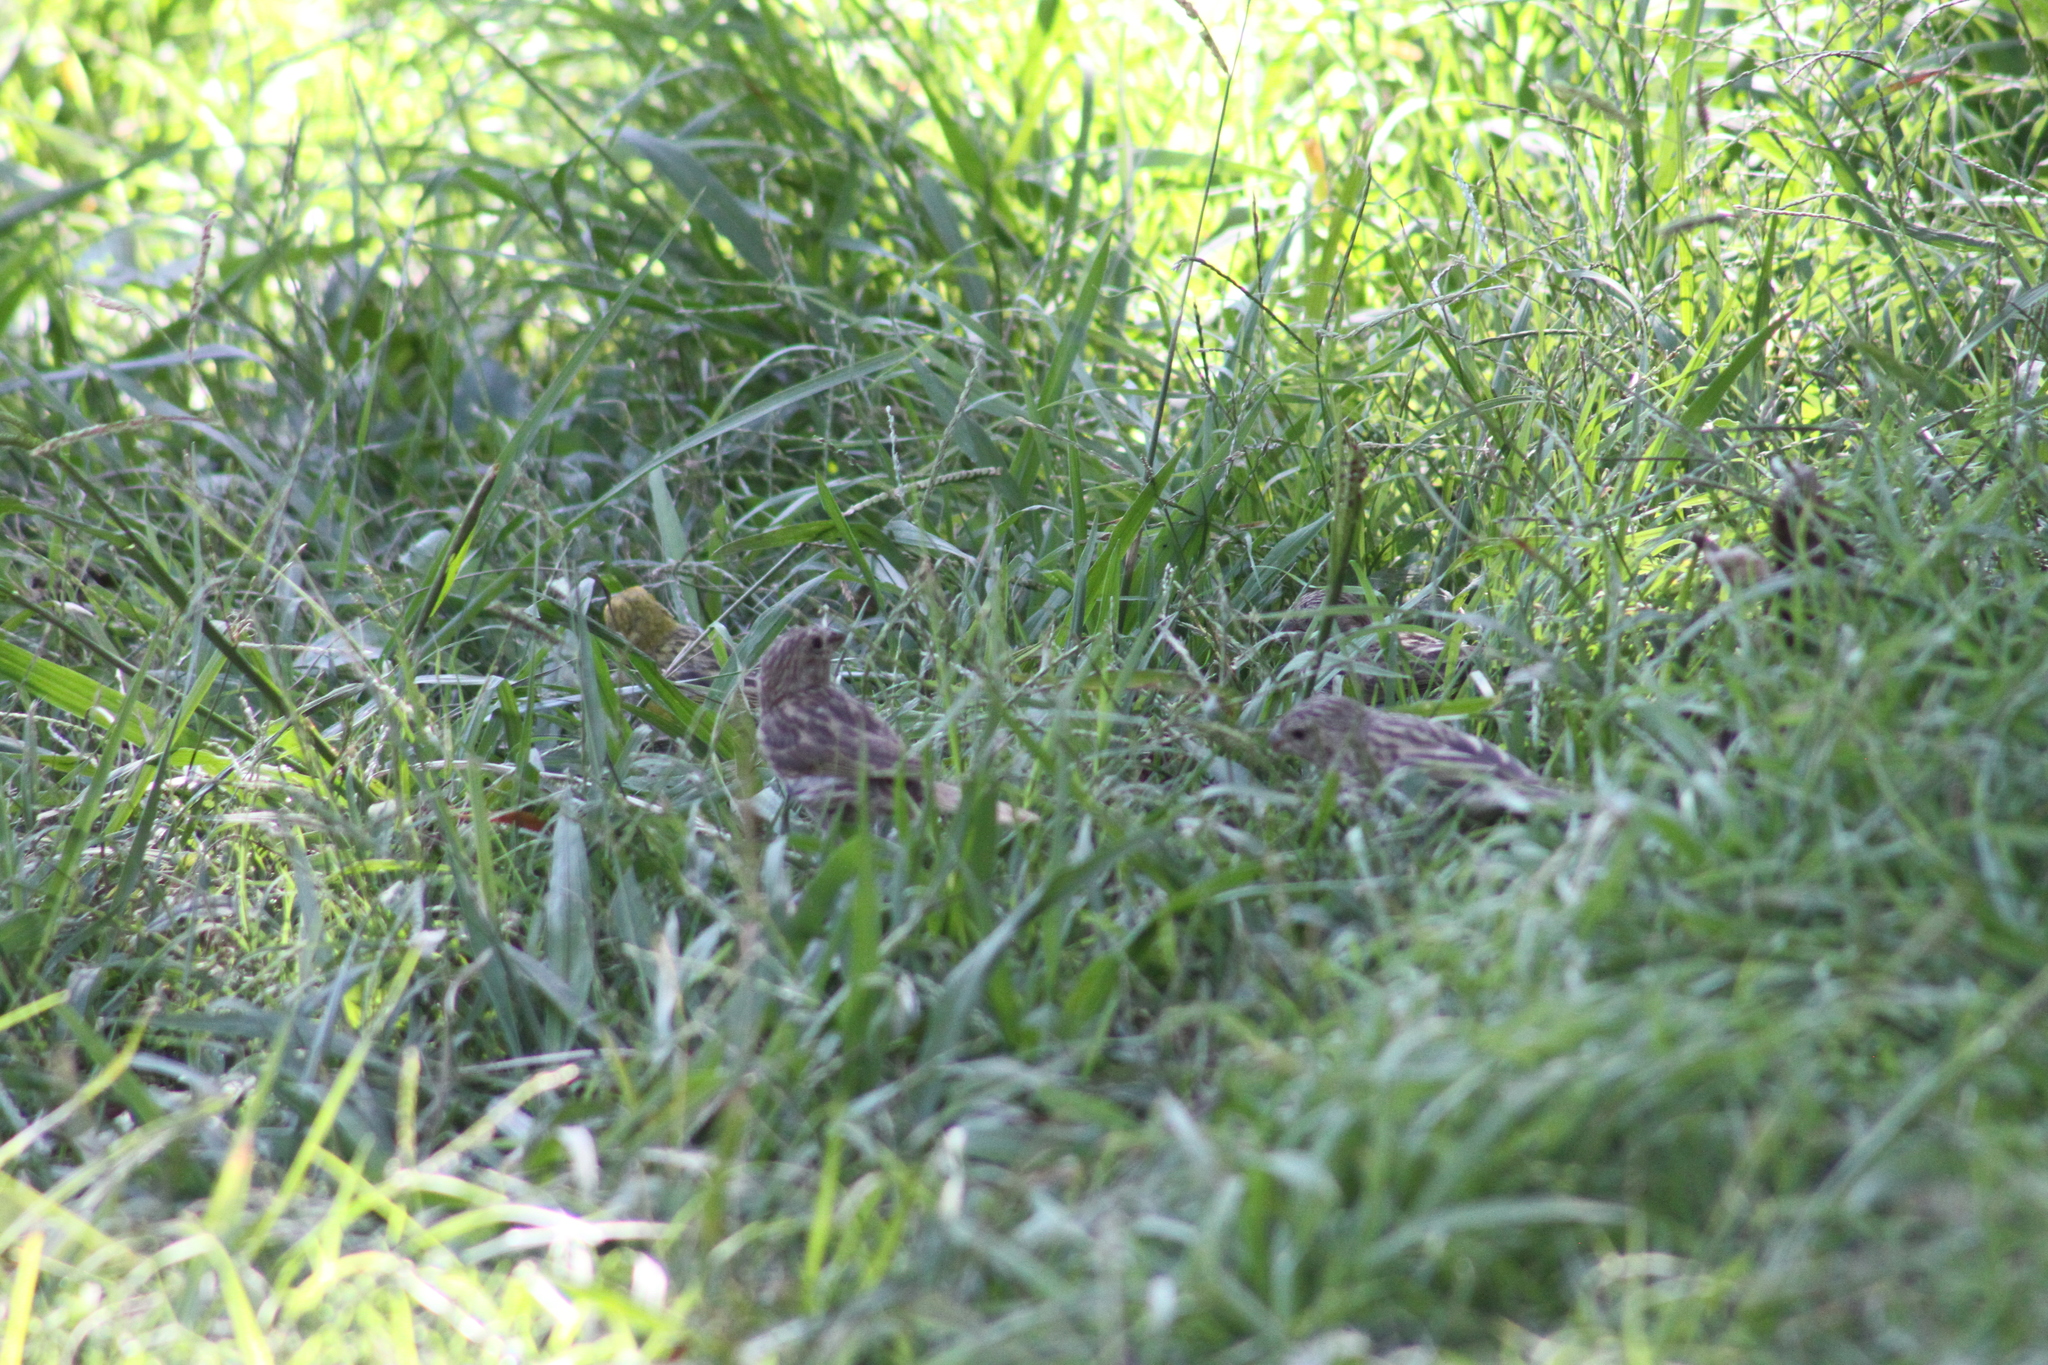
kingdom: Animalia
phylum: Chordata
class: Aves
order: Passeriformes
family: Thraupidae
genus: Sicalis
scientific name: Sicalis flaveola
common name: Saffron finch
